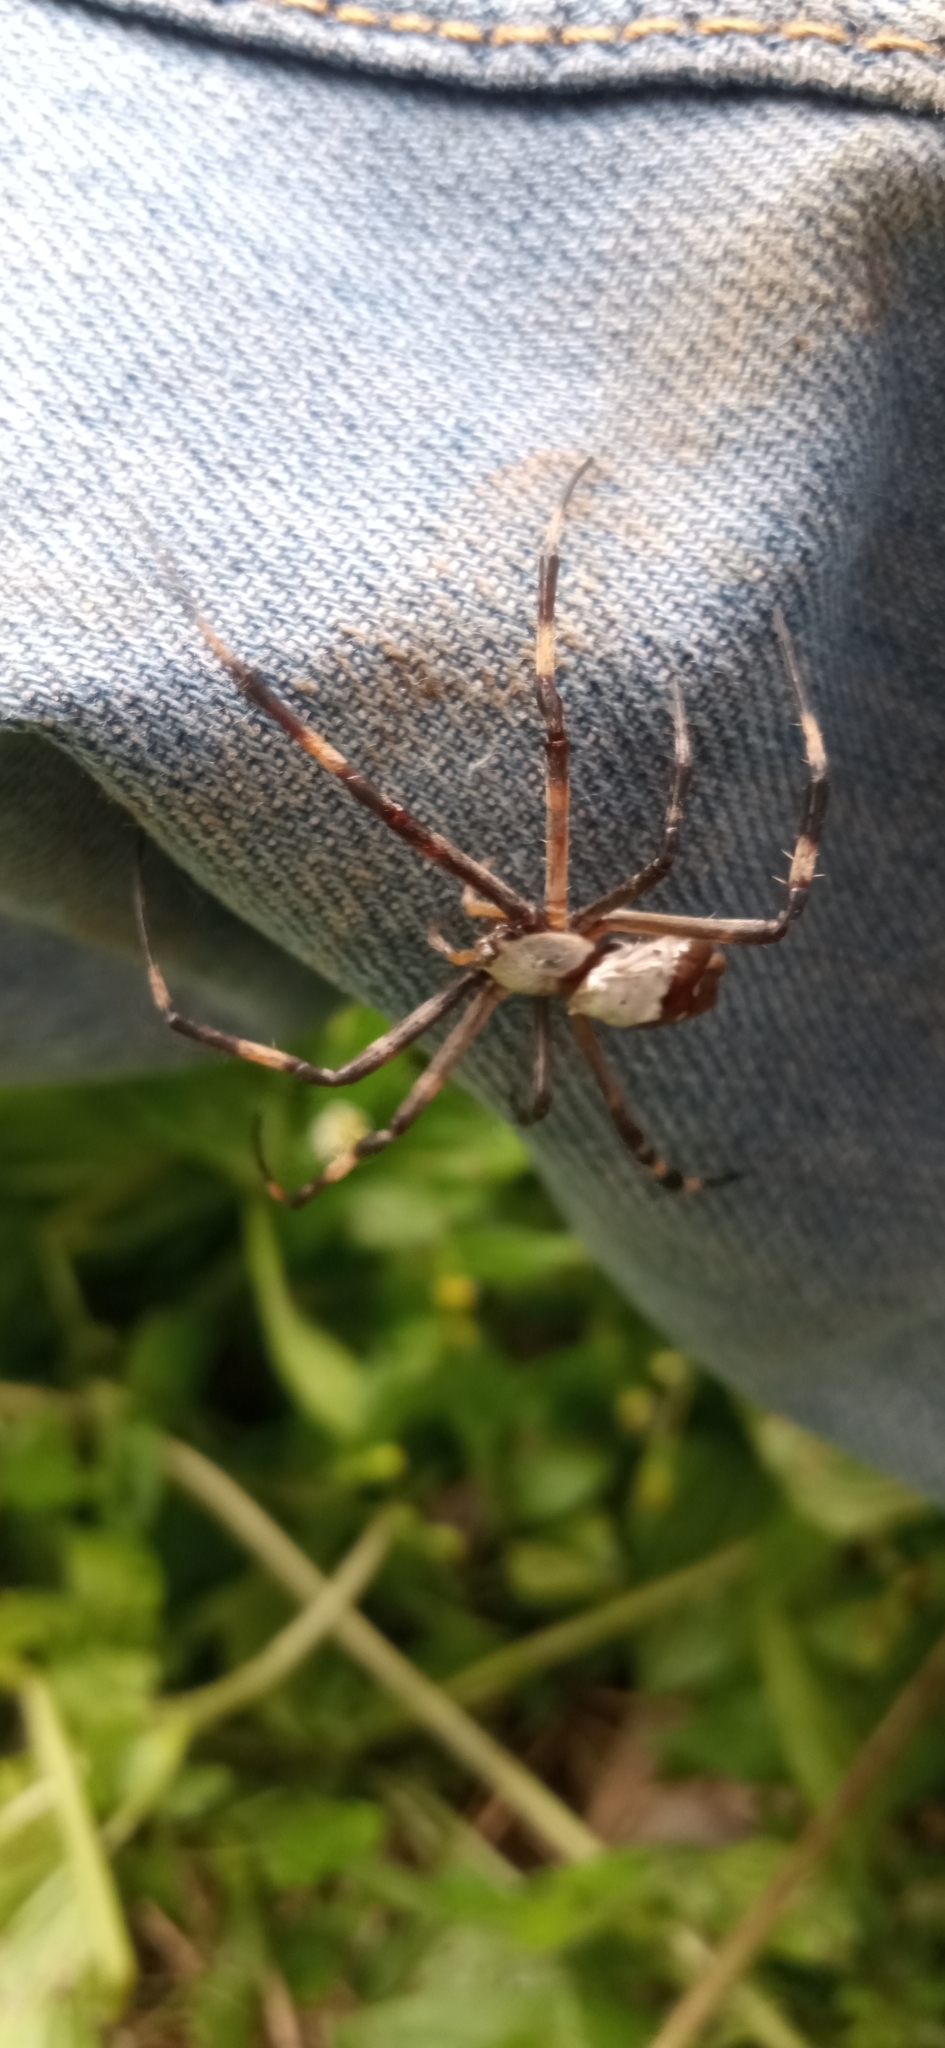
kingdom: Animalia
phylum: Arthropoda
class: Arachnida
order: Araneae
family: Araneidae
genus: Argiope
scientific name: Argiope argentata
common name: Orb weavers
